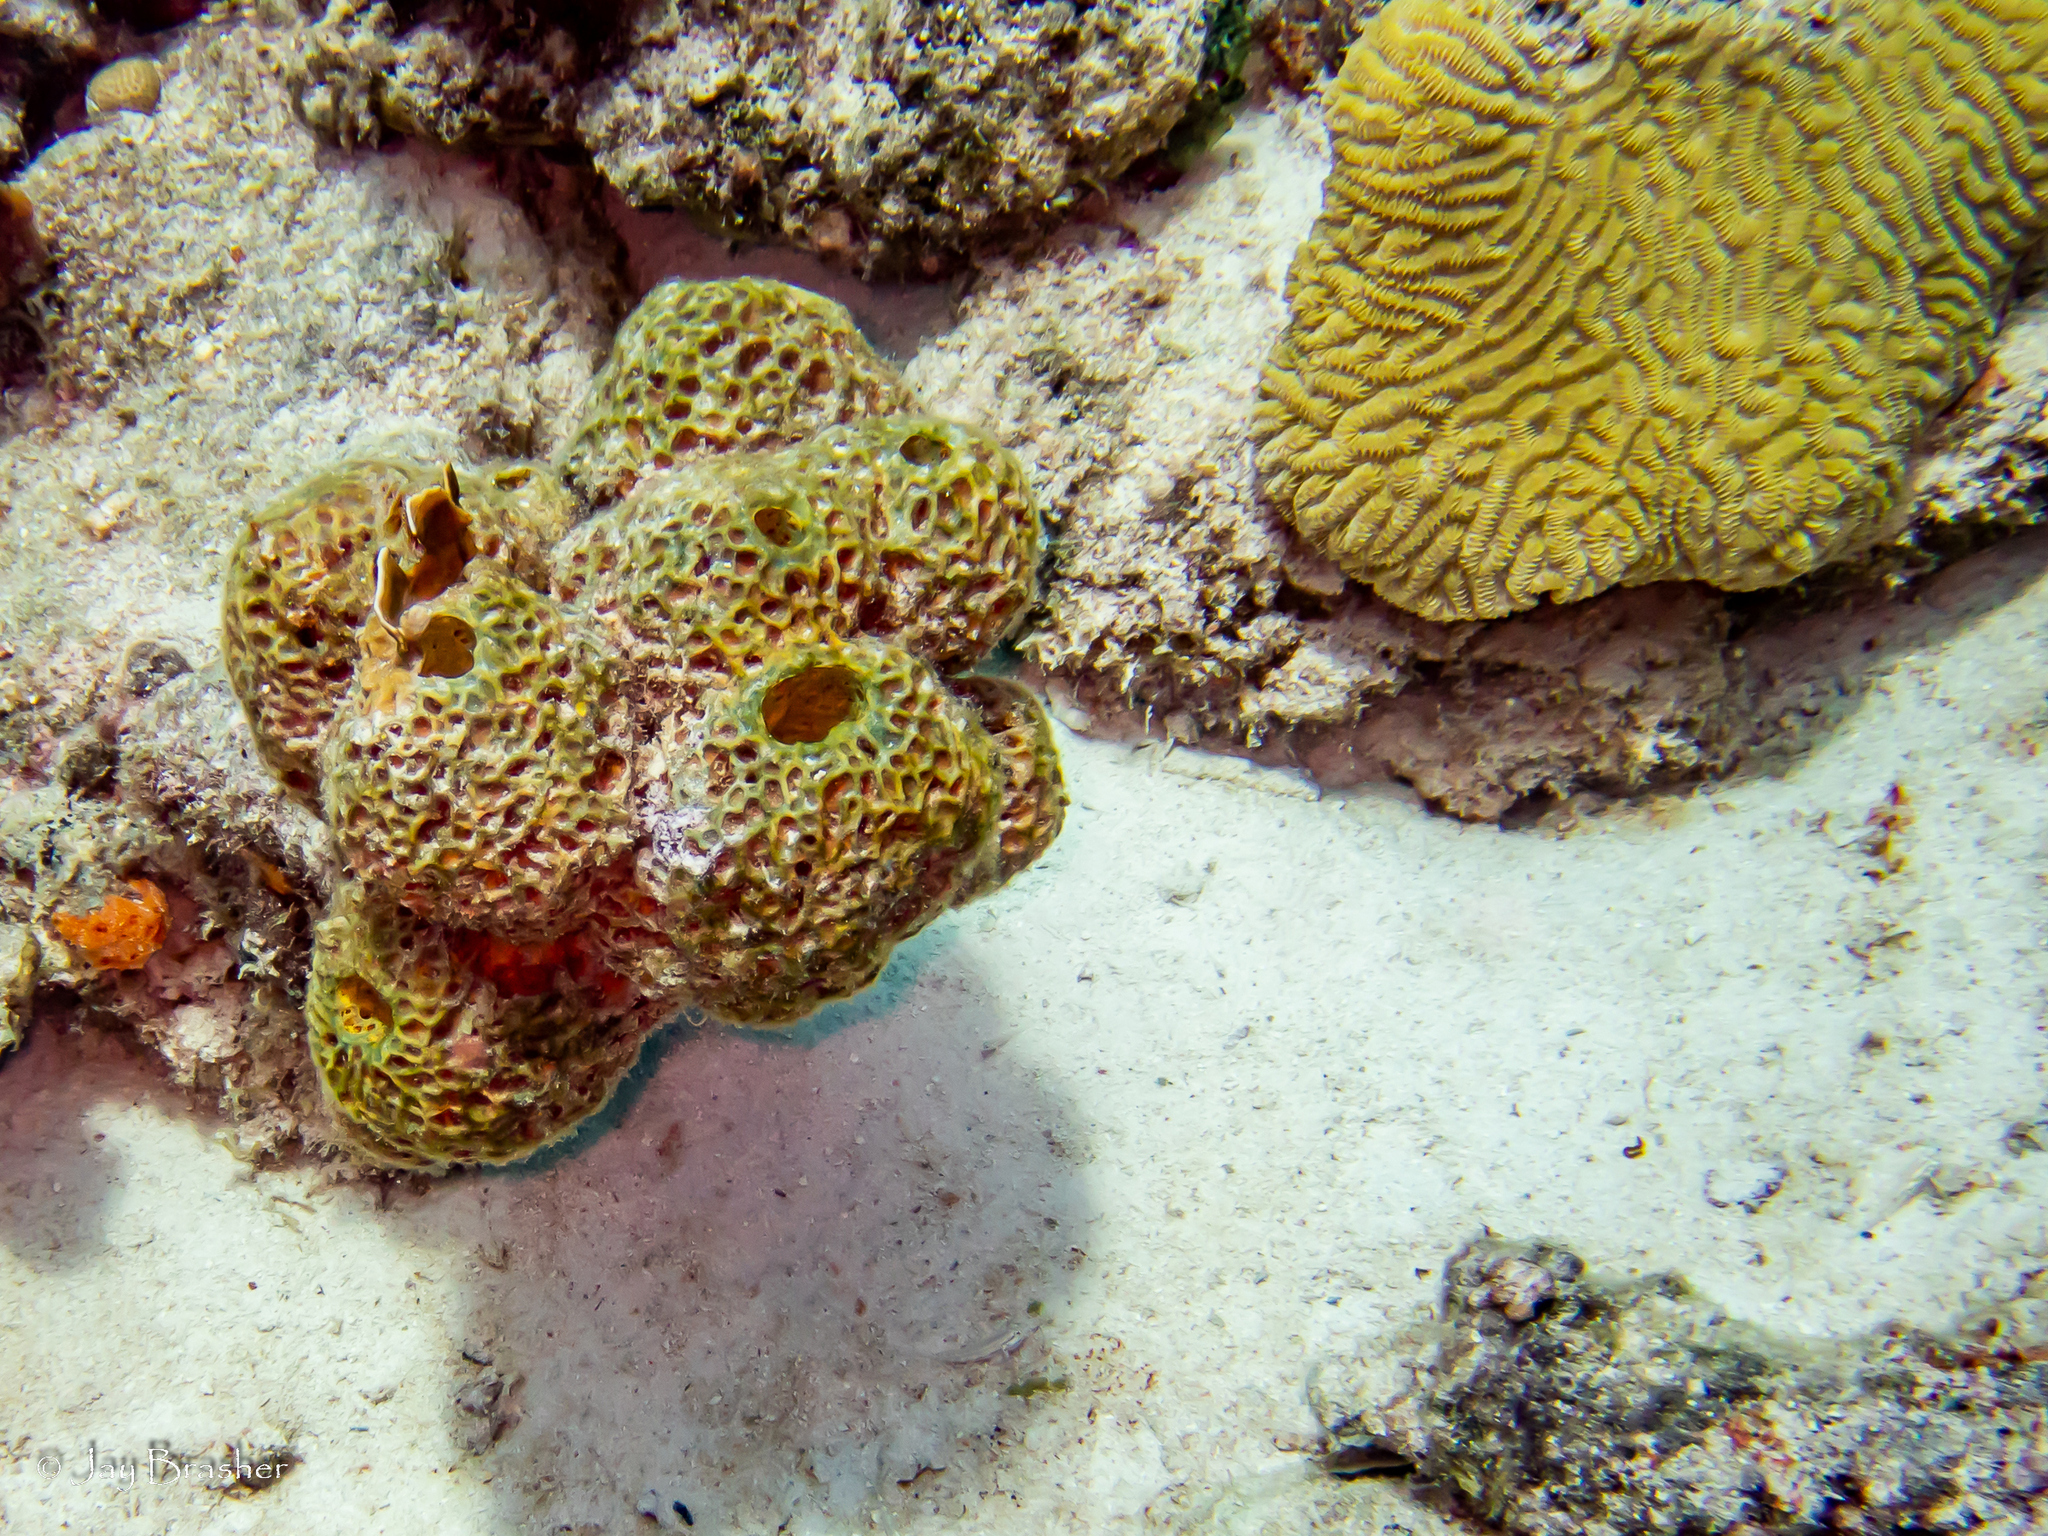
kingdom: Animalia
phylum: Cnidaria
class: Anthozoa
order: Scleractinia
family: Meandrinidae
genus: Meandrina
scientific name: Meandrina meandrites
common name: Maze coral
